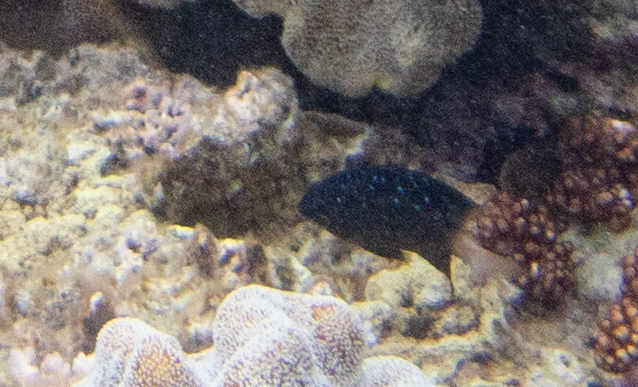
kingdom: Animalia
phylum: Chordata
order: Perciformes
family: Pomacentridae
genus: Plectroglyphidodon
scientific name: Plectroglyphidodon lacrymatus
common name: Jewel damsel
